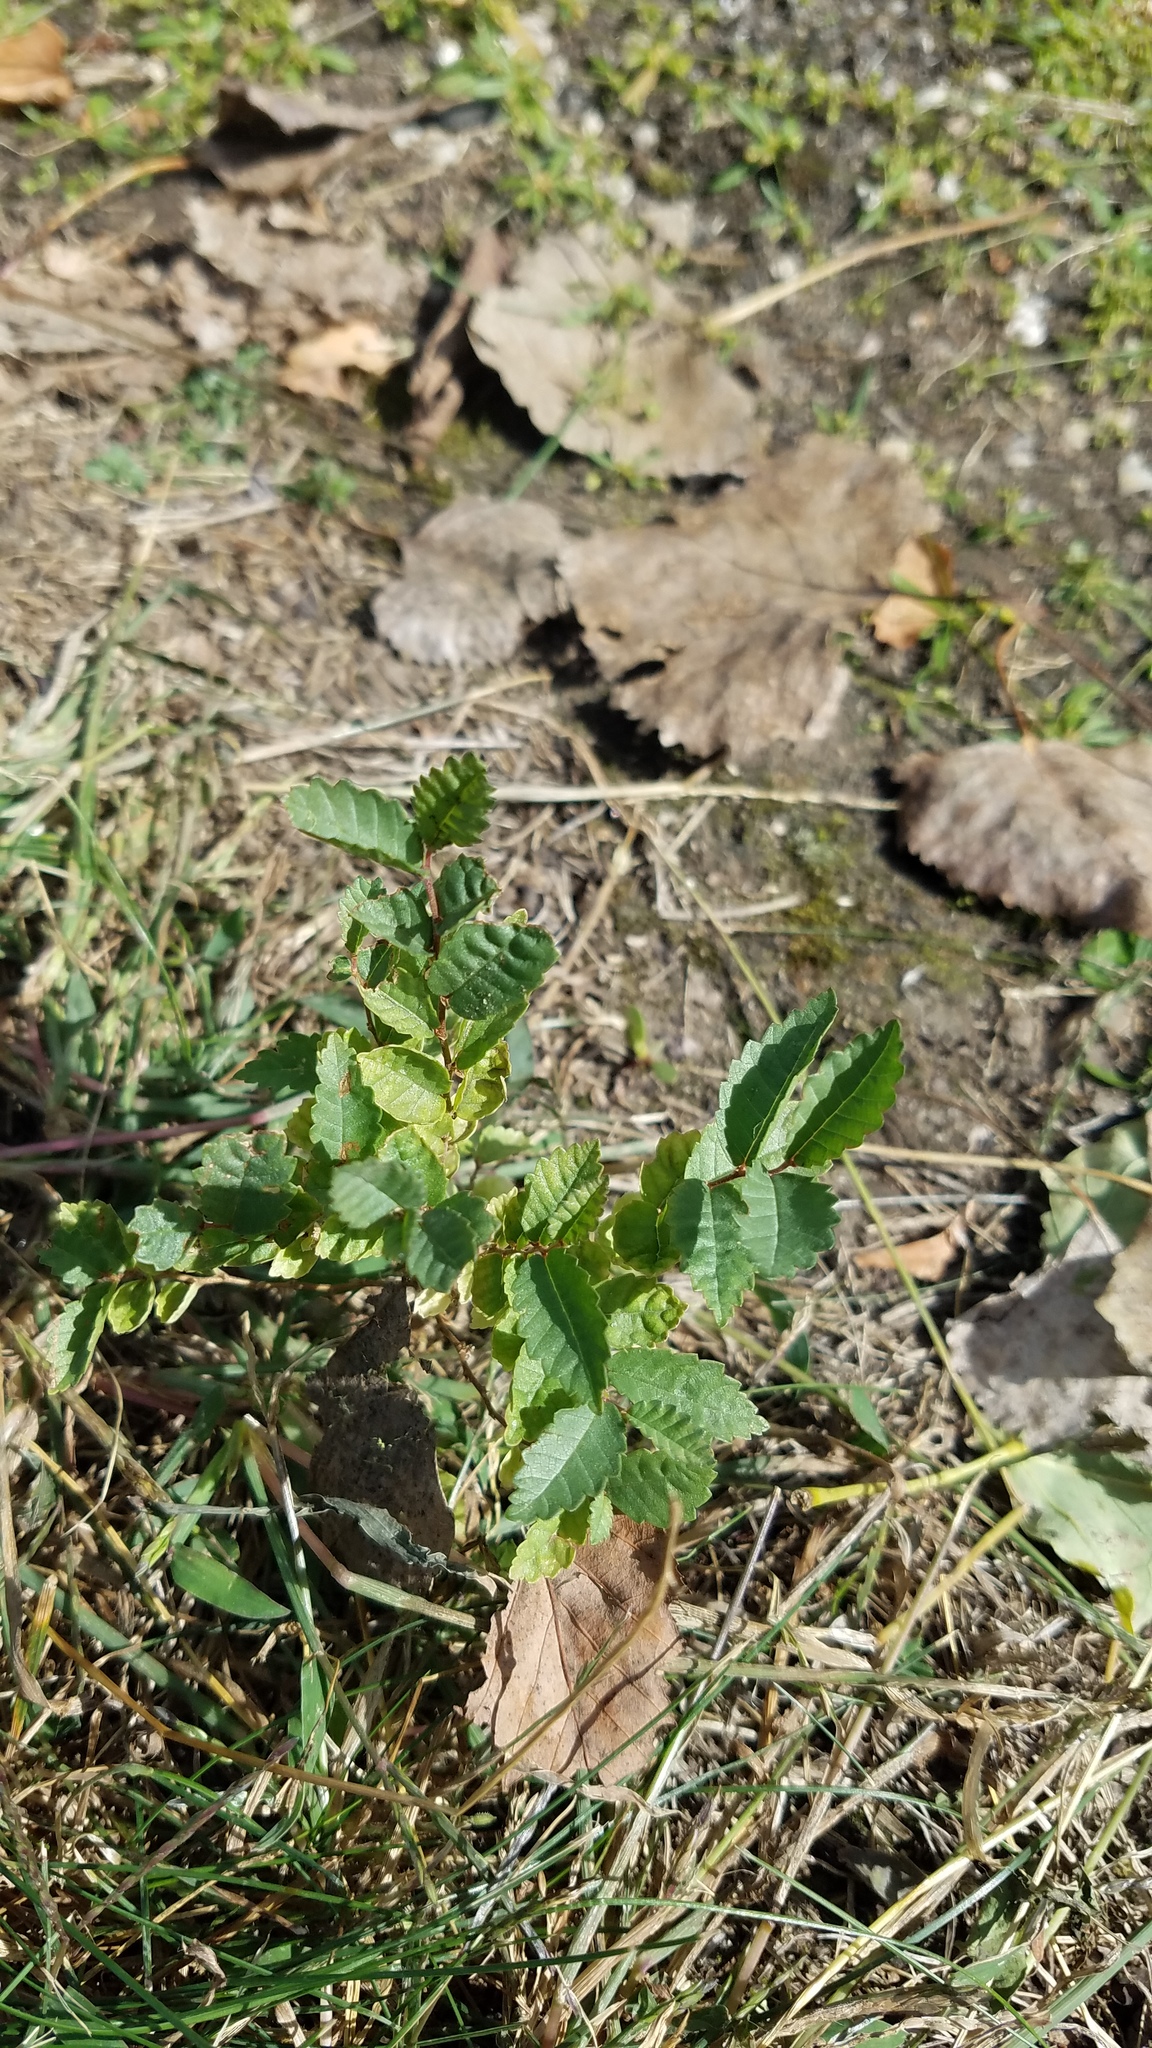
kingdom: Plantae
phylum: Tracheophyta
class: Magnoliopsida
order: Rosales
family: Ulmaceae
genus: Ulmus
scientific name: Ulmus pumila
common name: Siberian elm
